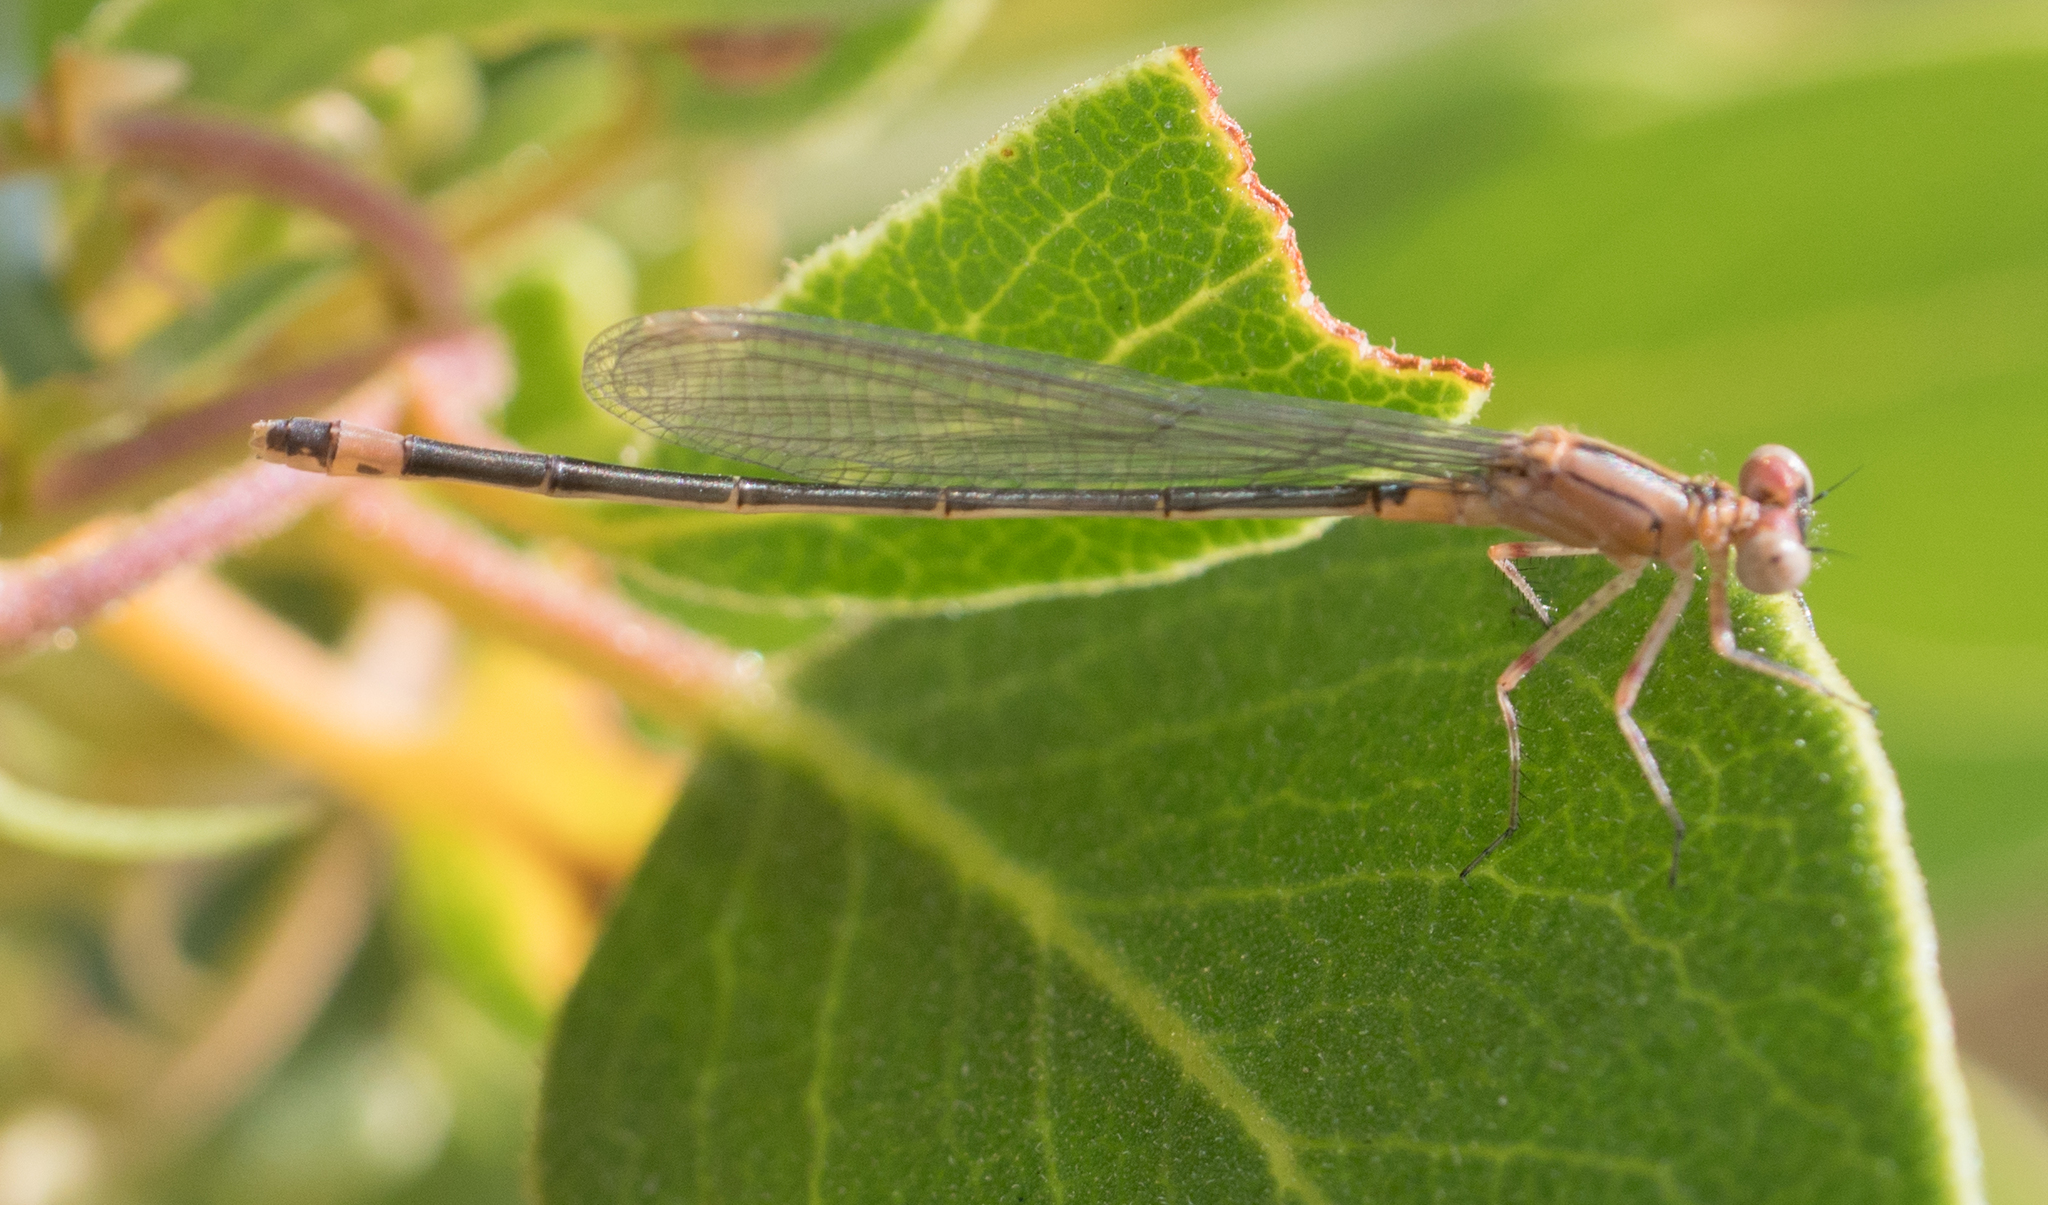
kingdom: Animalia
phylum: Arthropoda
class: Insecta
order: Odonata
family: Coenagrionidae
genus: Ischnura
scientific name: Ischnura cervula
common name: Pacific forktail
